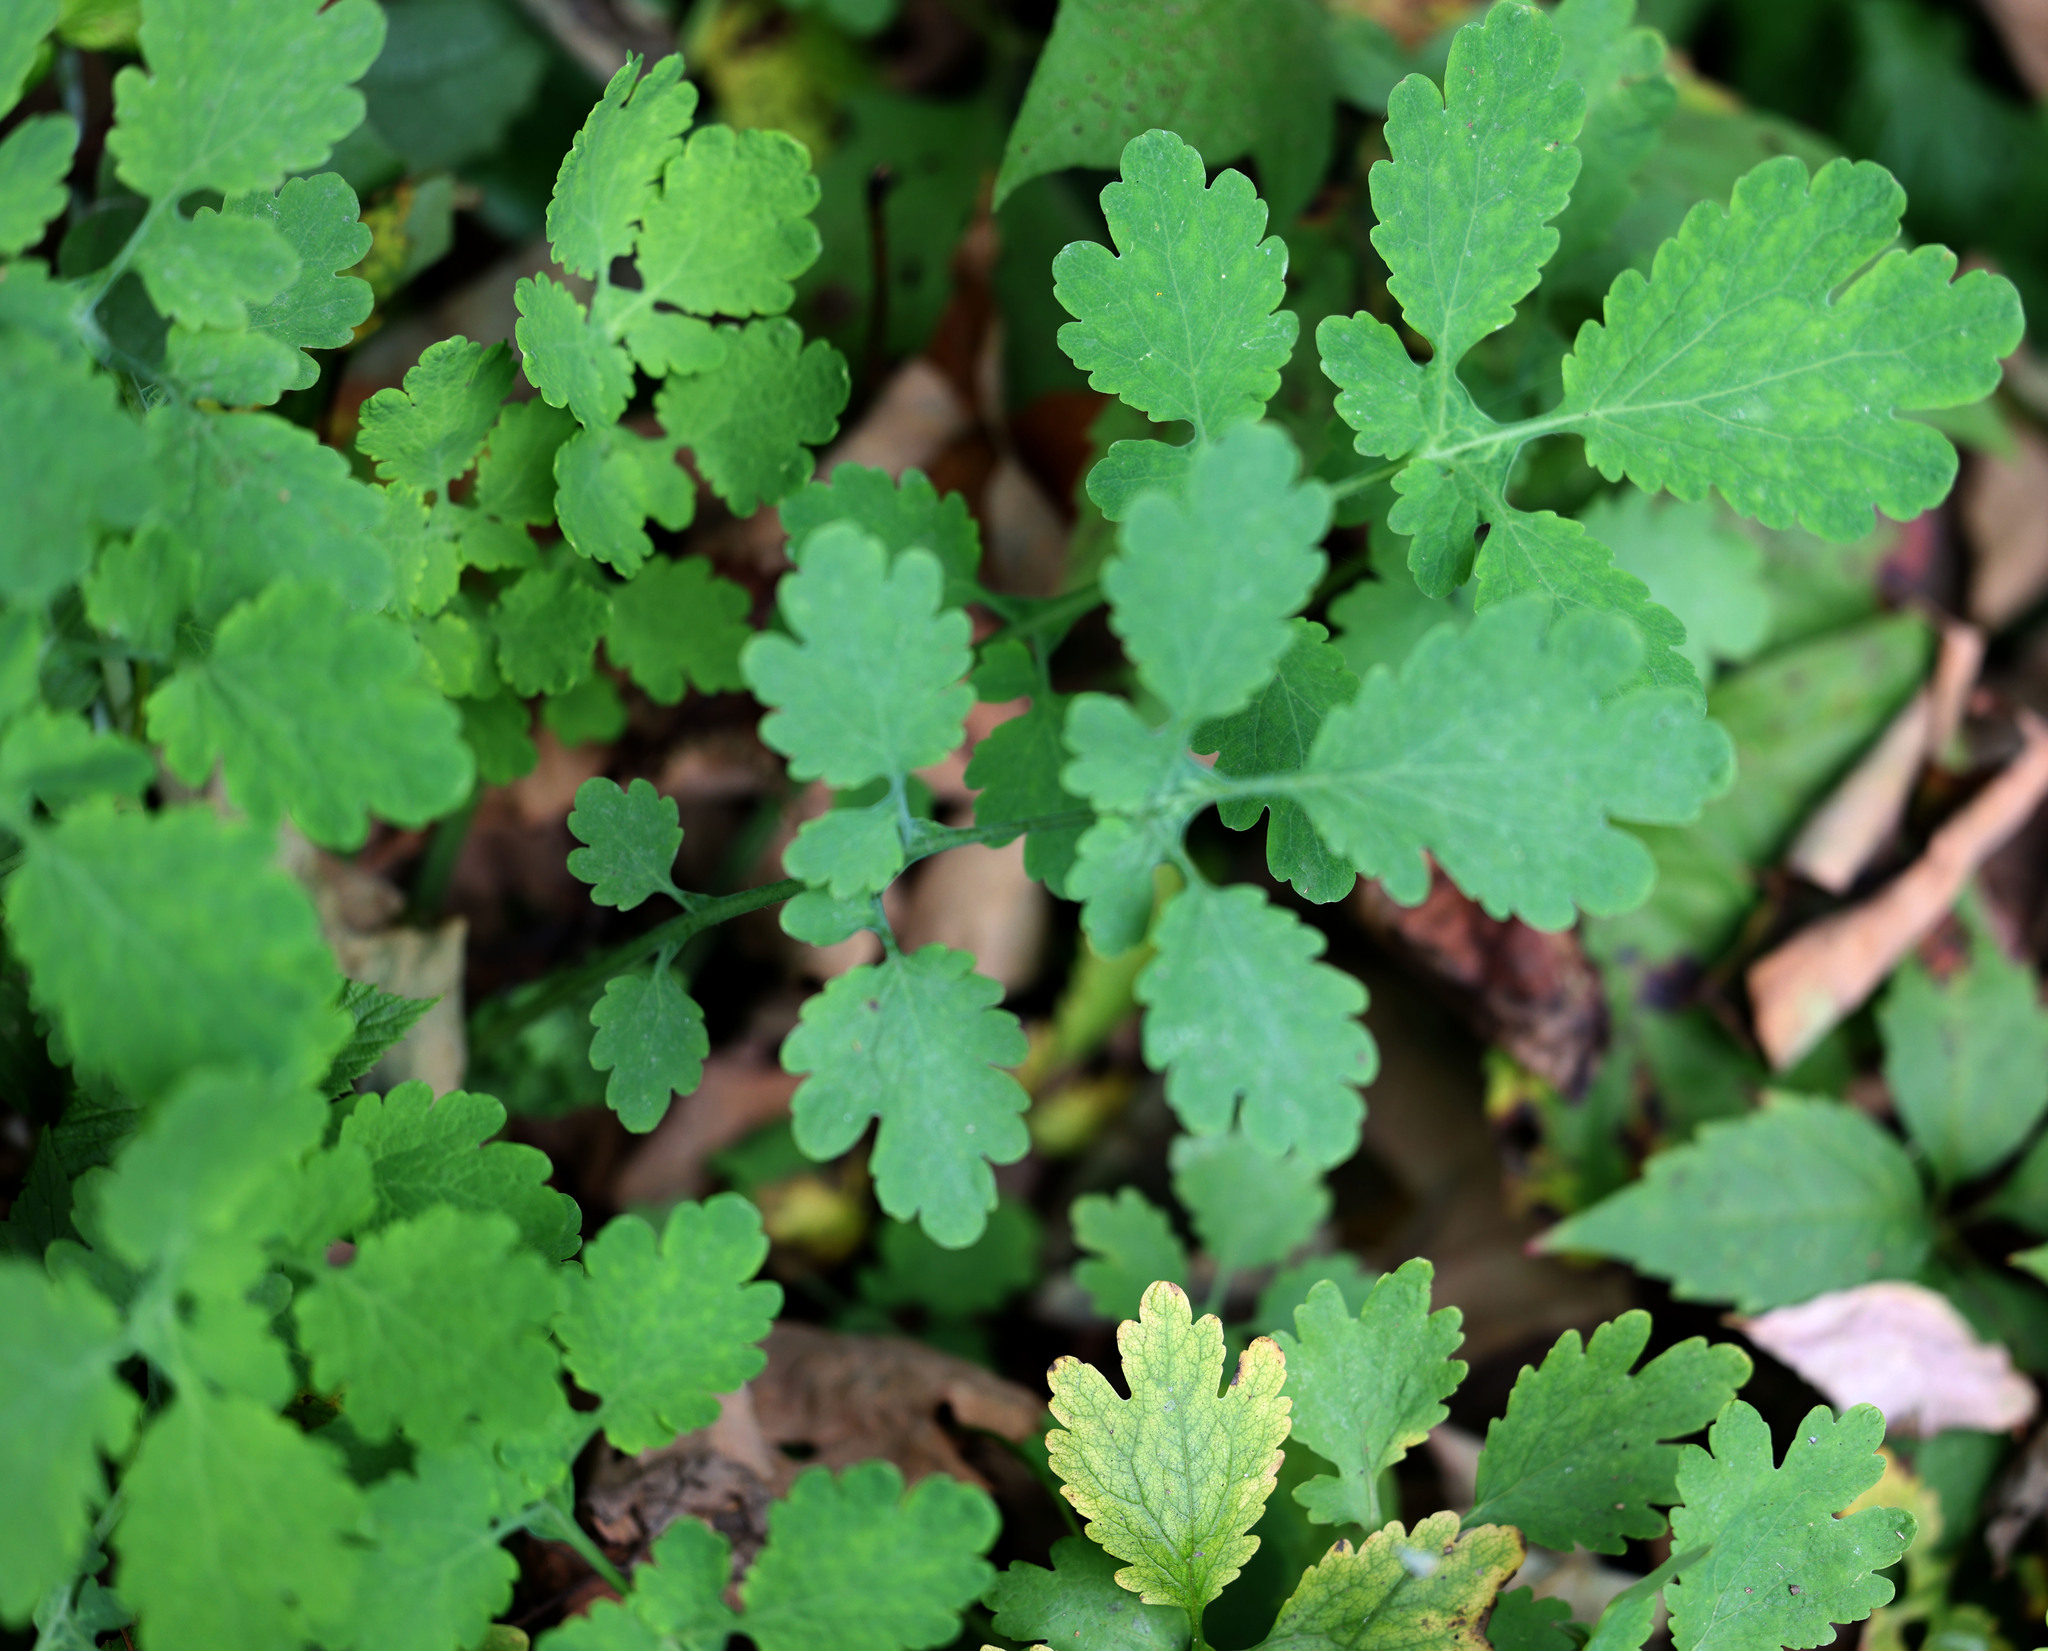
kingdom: Plantae
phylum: Tracheophyta
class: Magnoliopsida
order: Ranunculales
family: Papaveraceae
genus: Chelidonium
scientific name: Chelidonium majus
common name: Greater celandine
